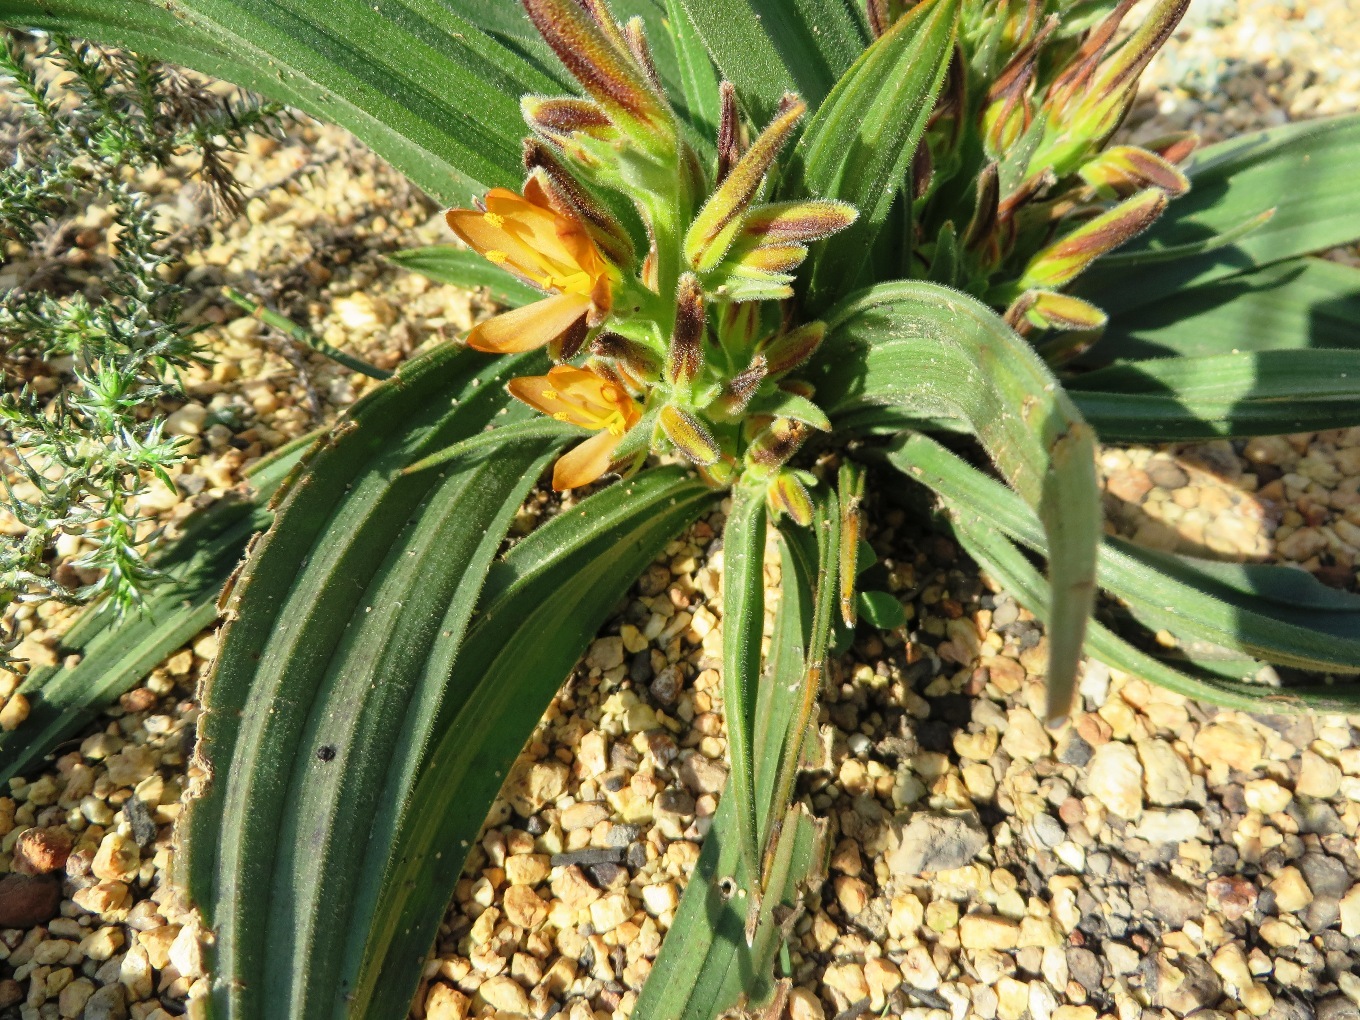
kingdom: Plantae
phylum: Tracheophyta
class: Liliopsida
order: Commelinales
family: Haemodoraceae
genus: Wachendorfia
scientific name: Wachendorfia multiflora
